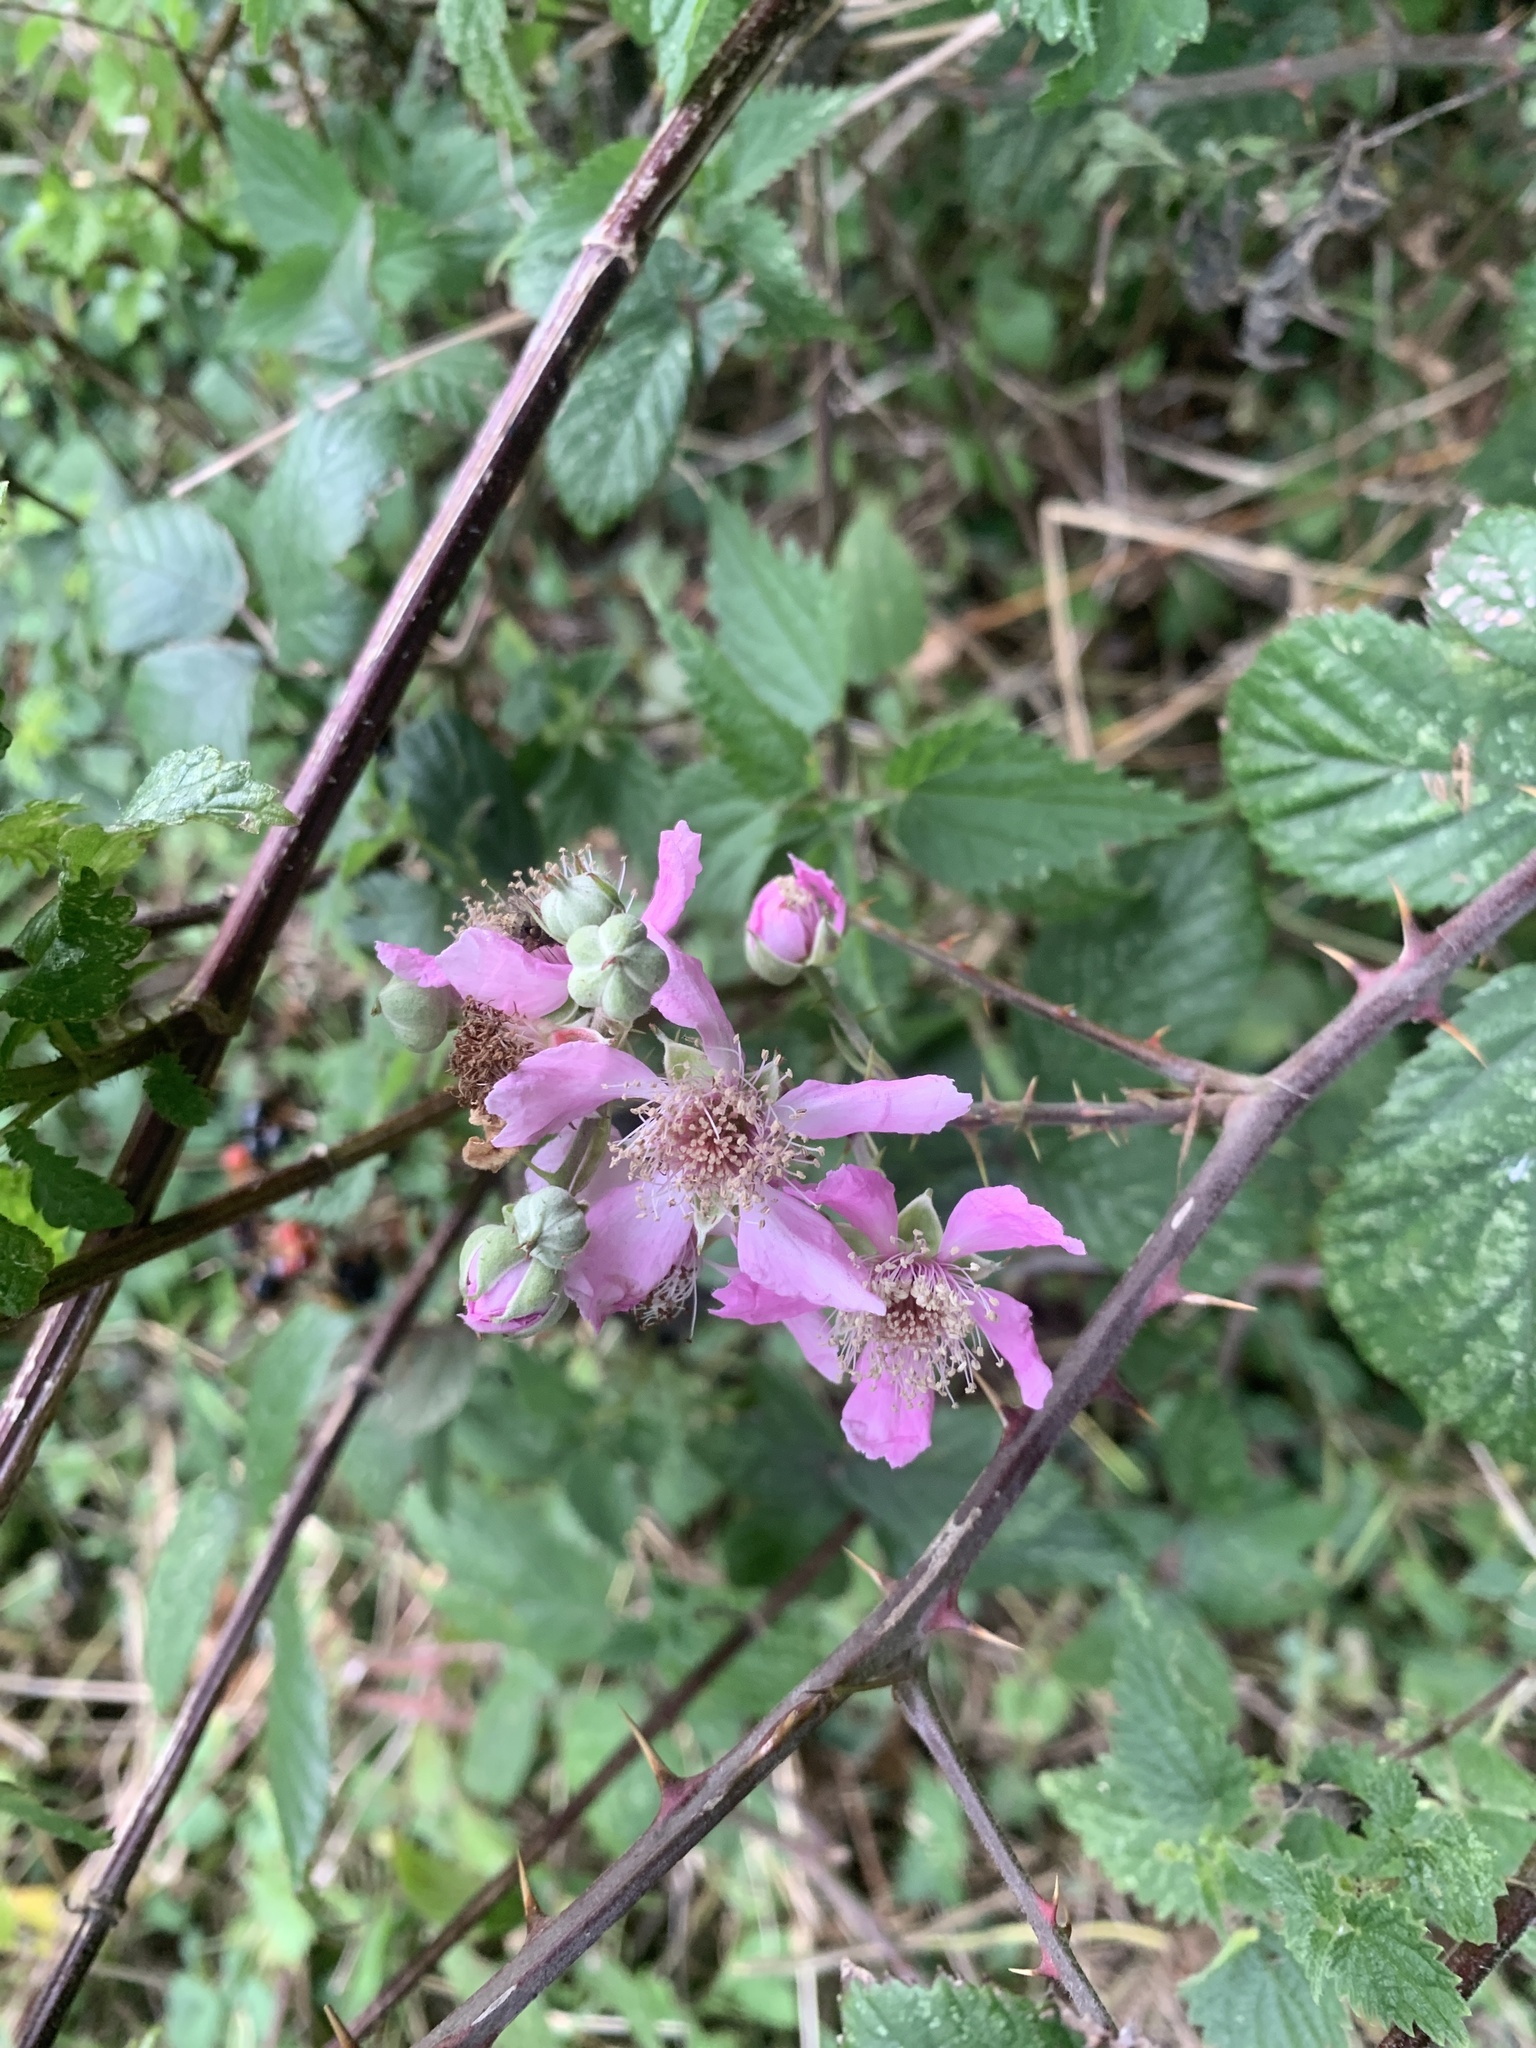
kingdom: Plantae
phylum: Tracheophyta
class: Magnoliopsida
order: Rosales
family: Rosaceae
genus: Rubus
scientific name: Rubus ulmifolius
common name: Elmleaf blackberry
